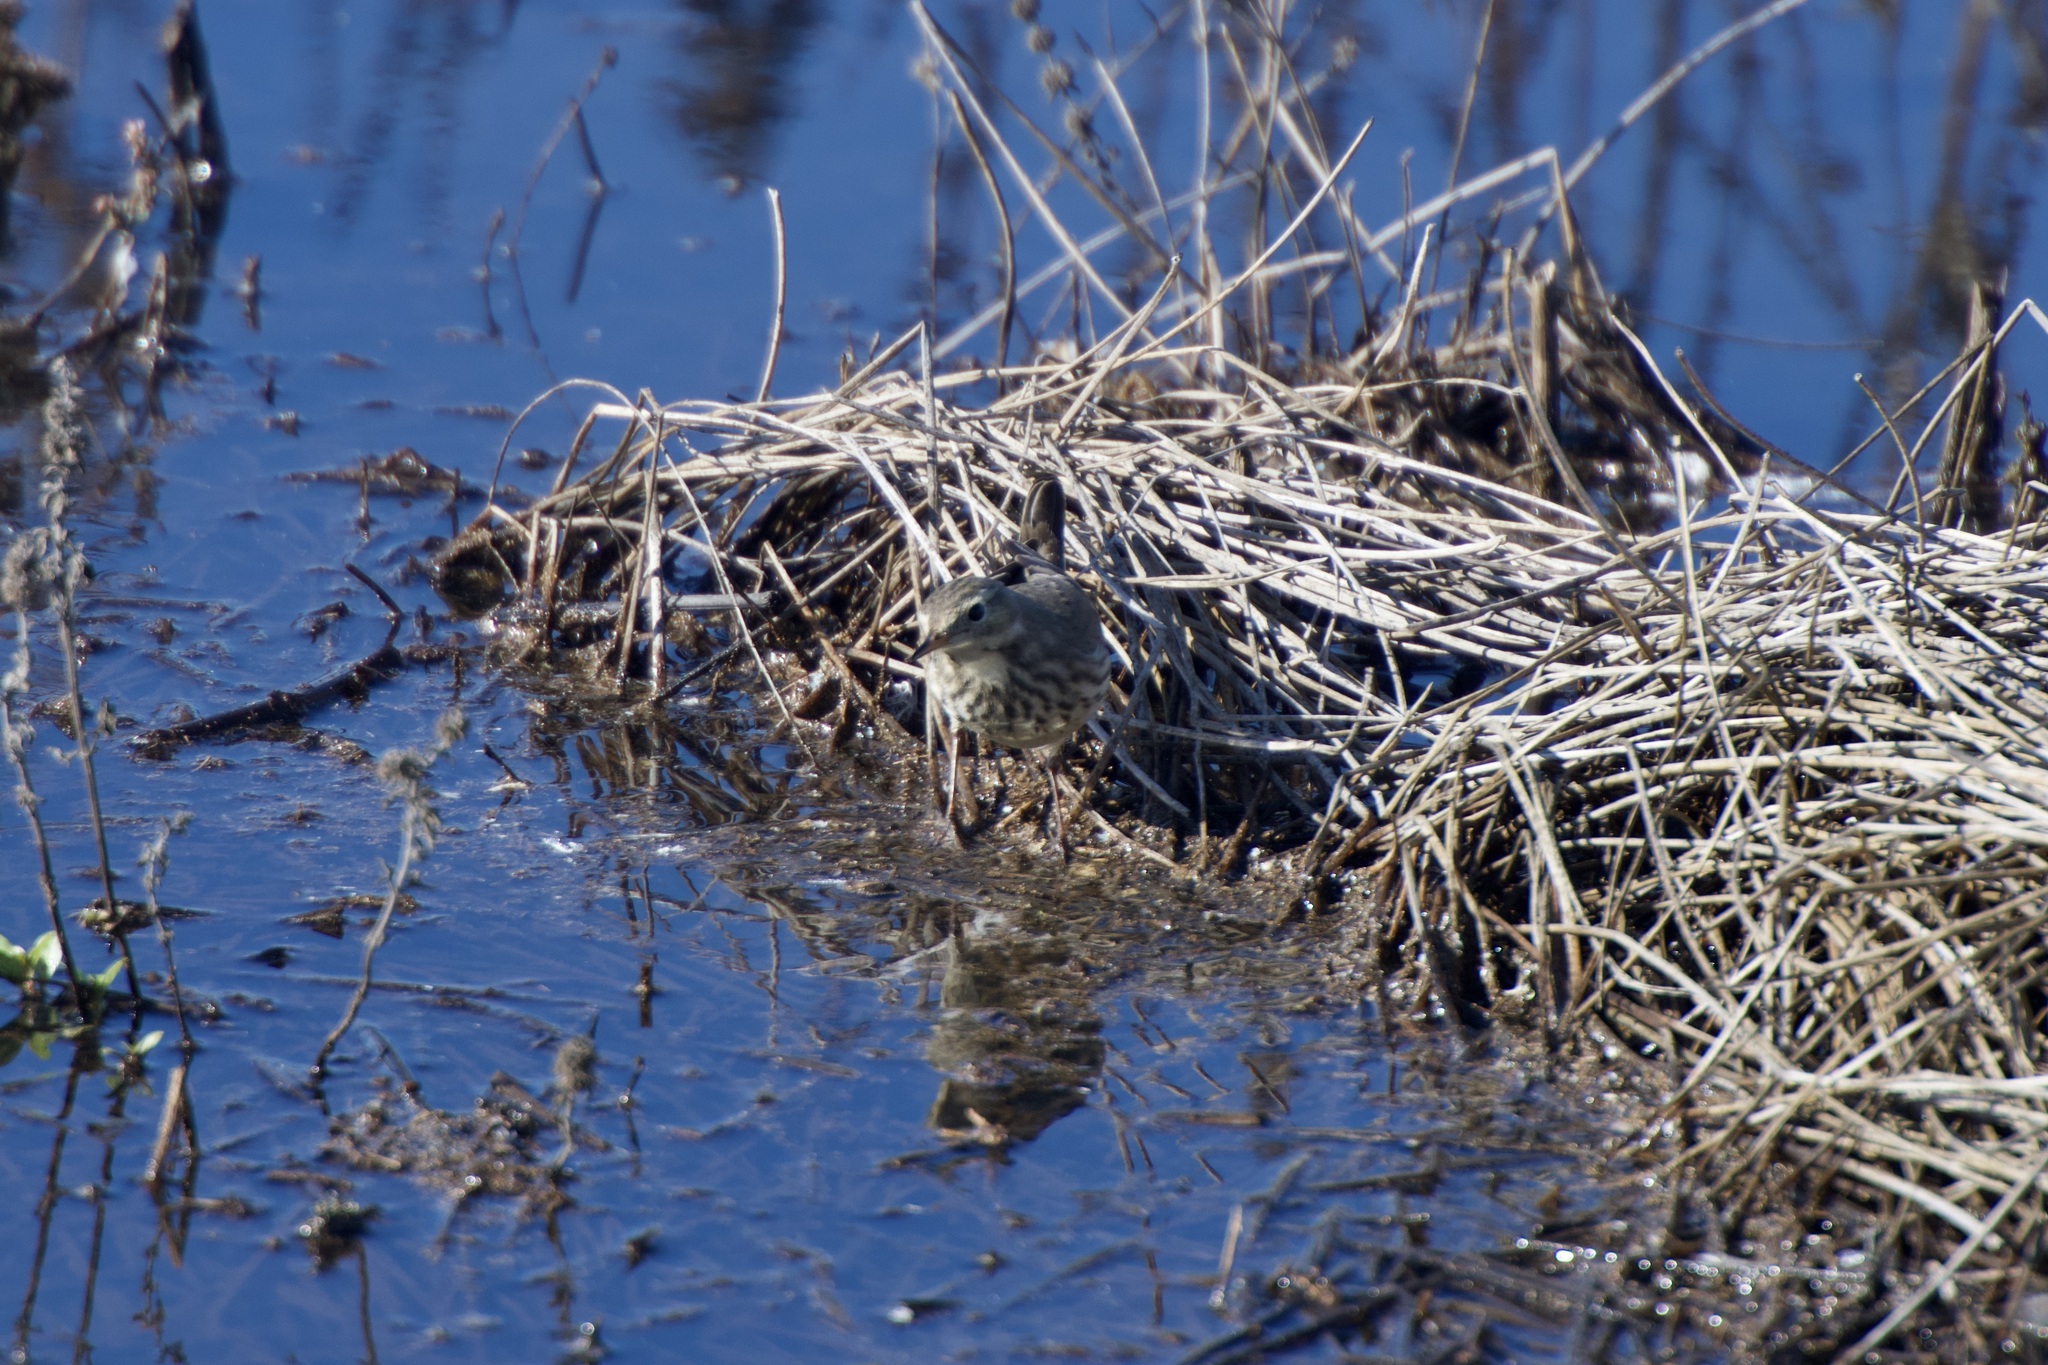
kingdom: Animalia
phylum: Chordata
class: Aves
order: Passeriformes
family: Motacillidae
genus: Anthus
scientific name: Anthus rubescens
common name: Buff-bellied pipit
